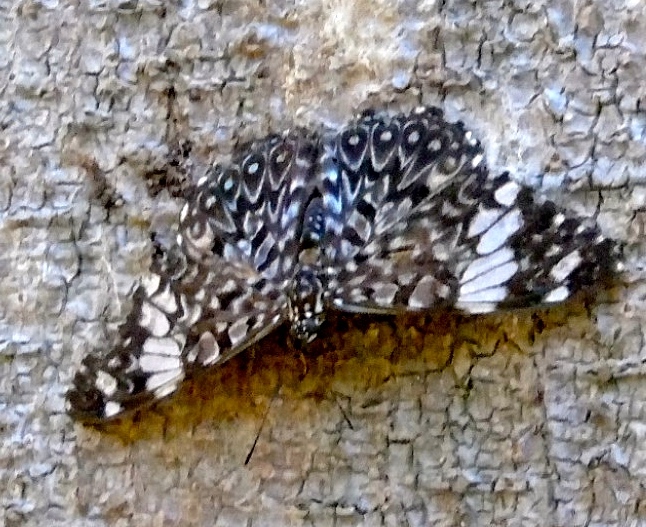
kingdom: Animalia
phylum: Arthropoda
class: Insecta
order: Lepidoptera
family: Nymphalidae
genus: Hamadryas
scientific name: Hamadryas amphinome
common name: Red cracker
